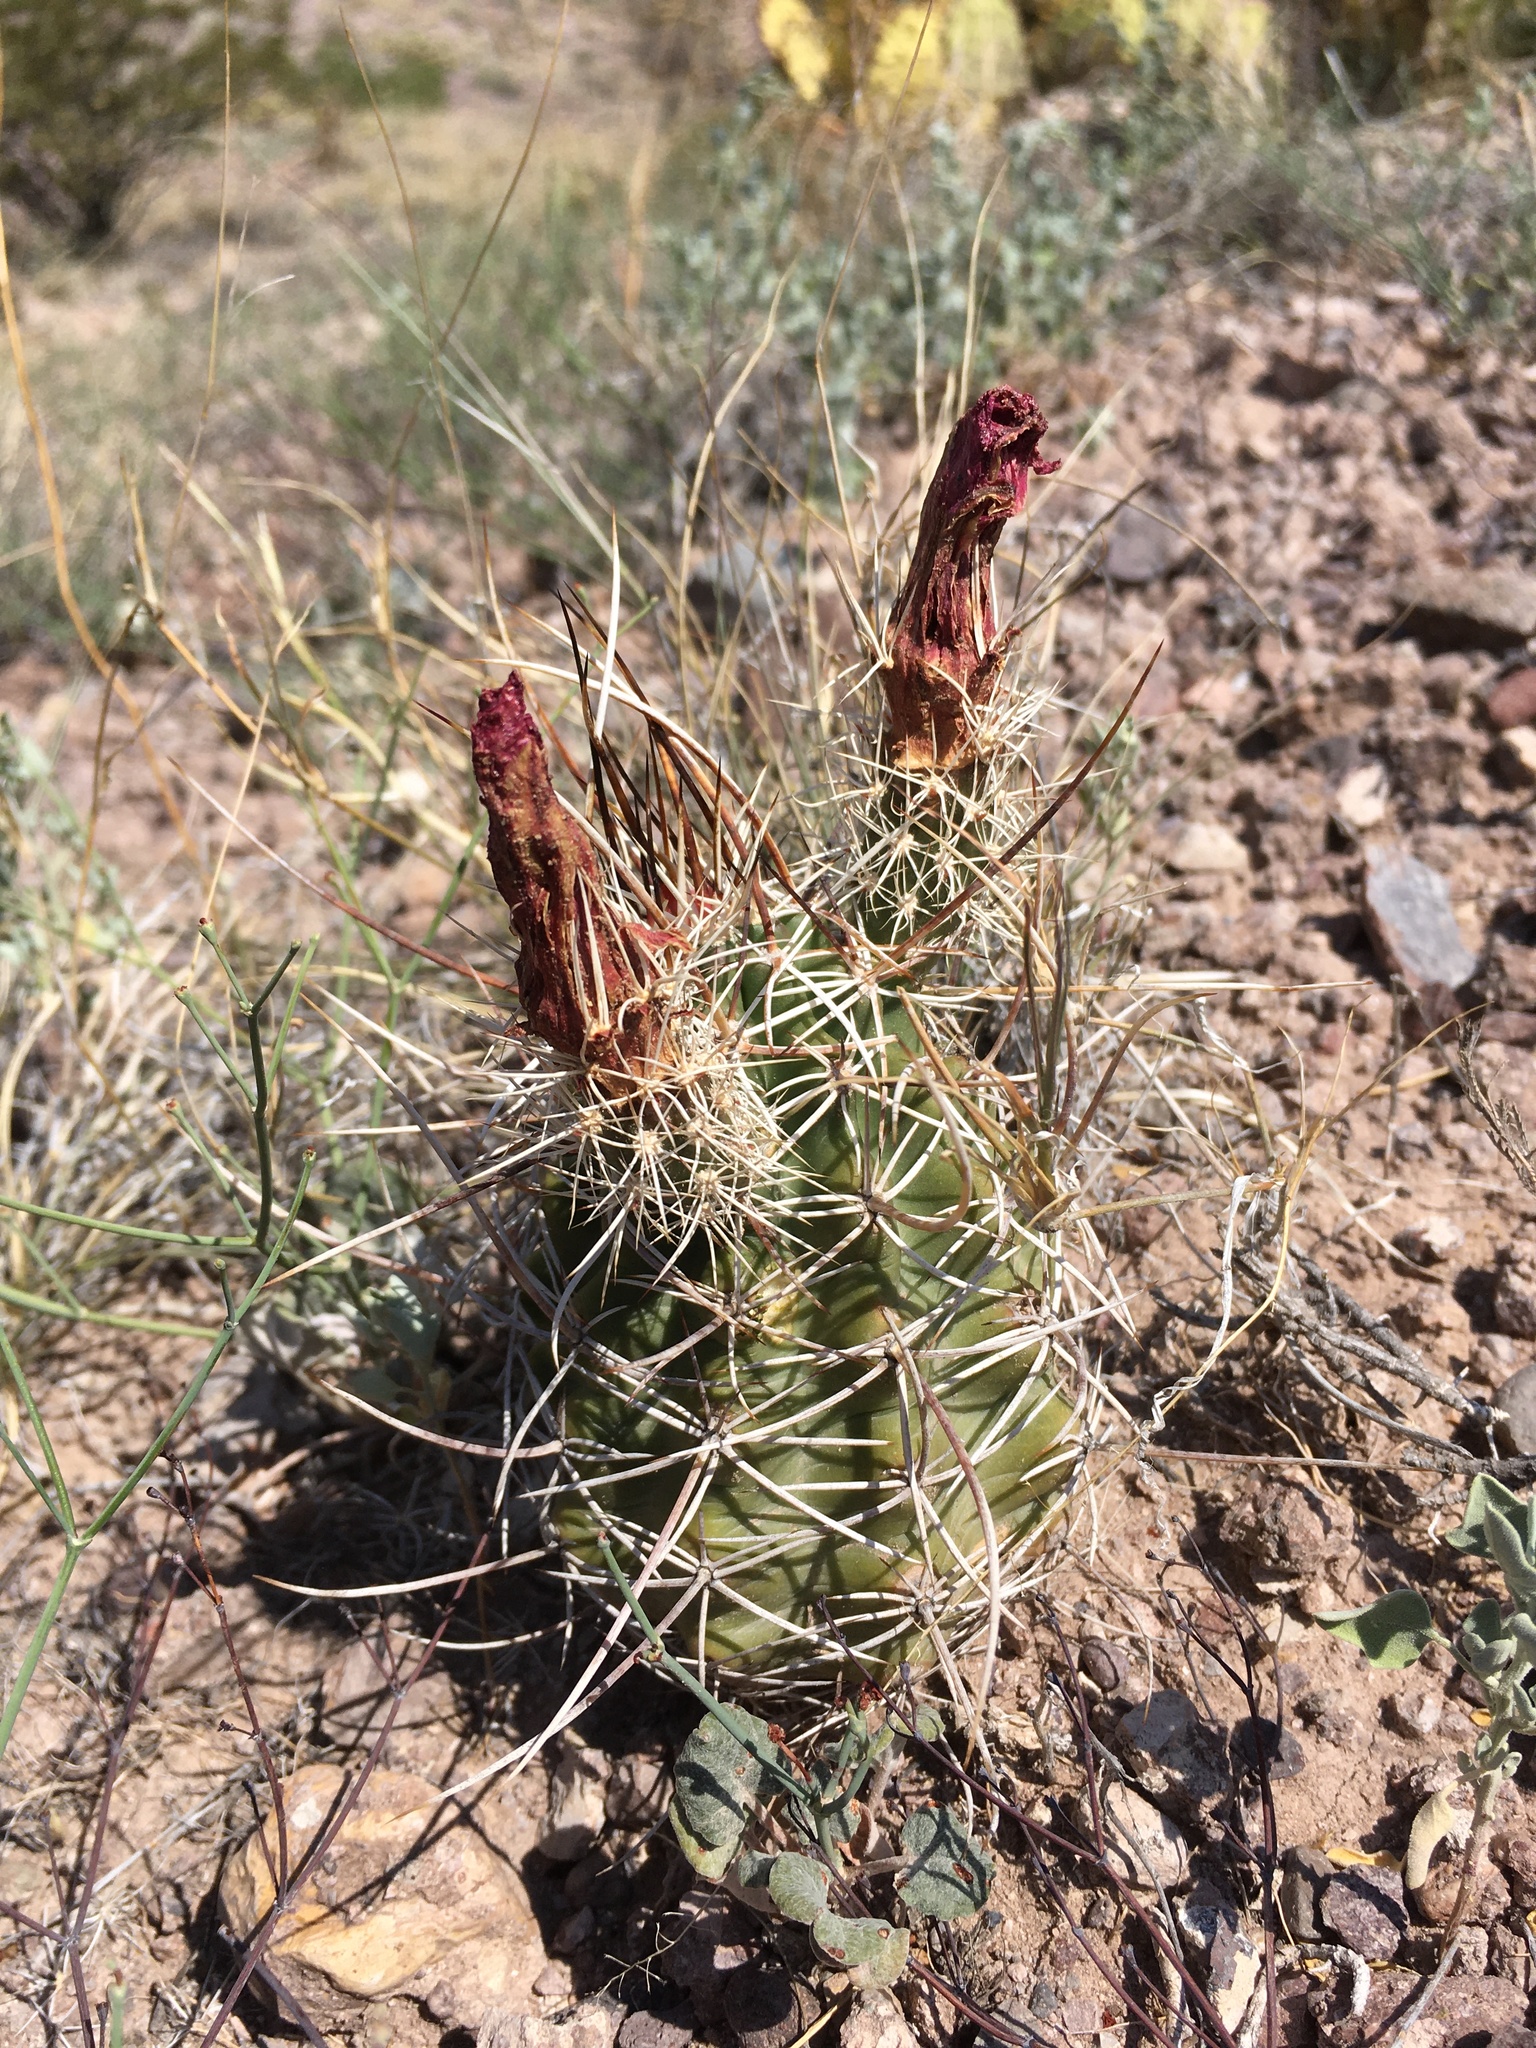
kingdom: Plantae
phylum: Tracheophyta
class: Magnoliopsida
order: Caryophyllales
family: Cactaceae
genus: Echinocereus
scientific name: Echinocereus fendleri
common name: Fendler's hedgehog cactus
